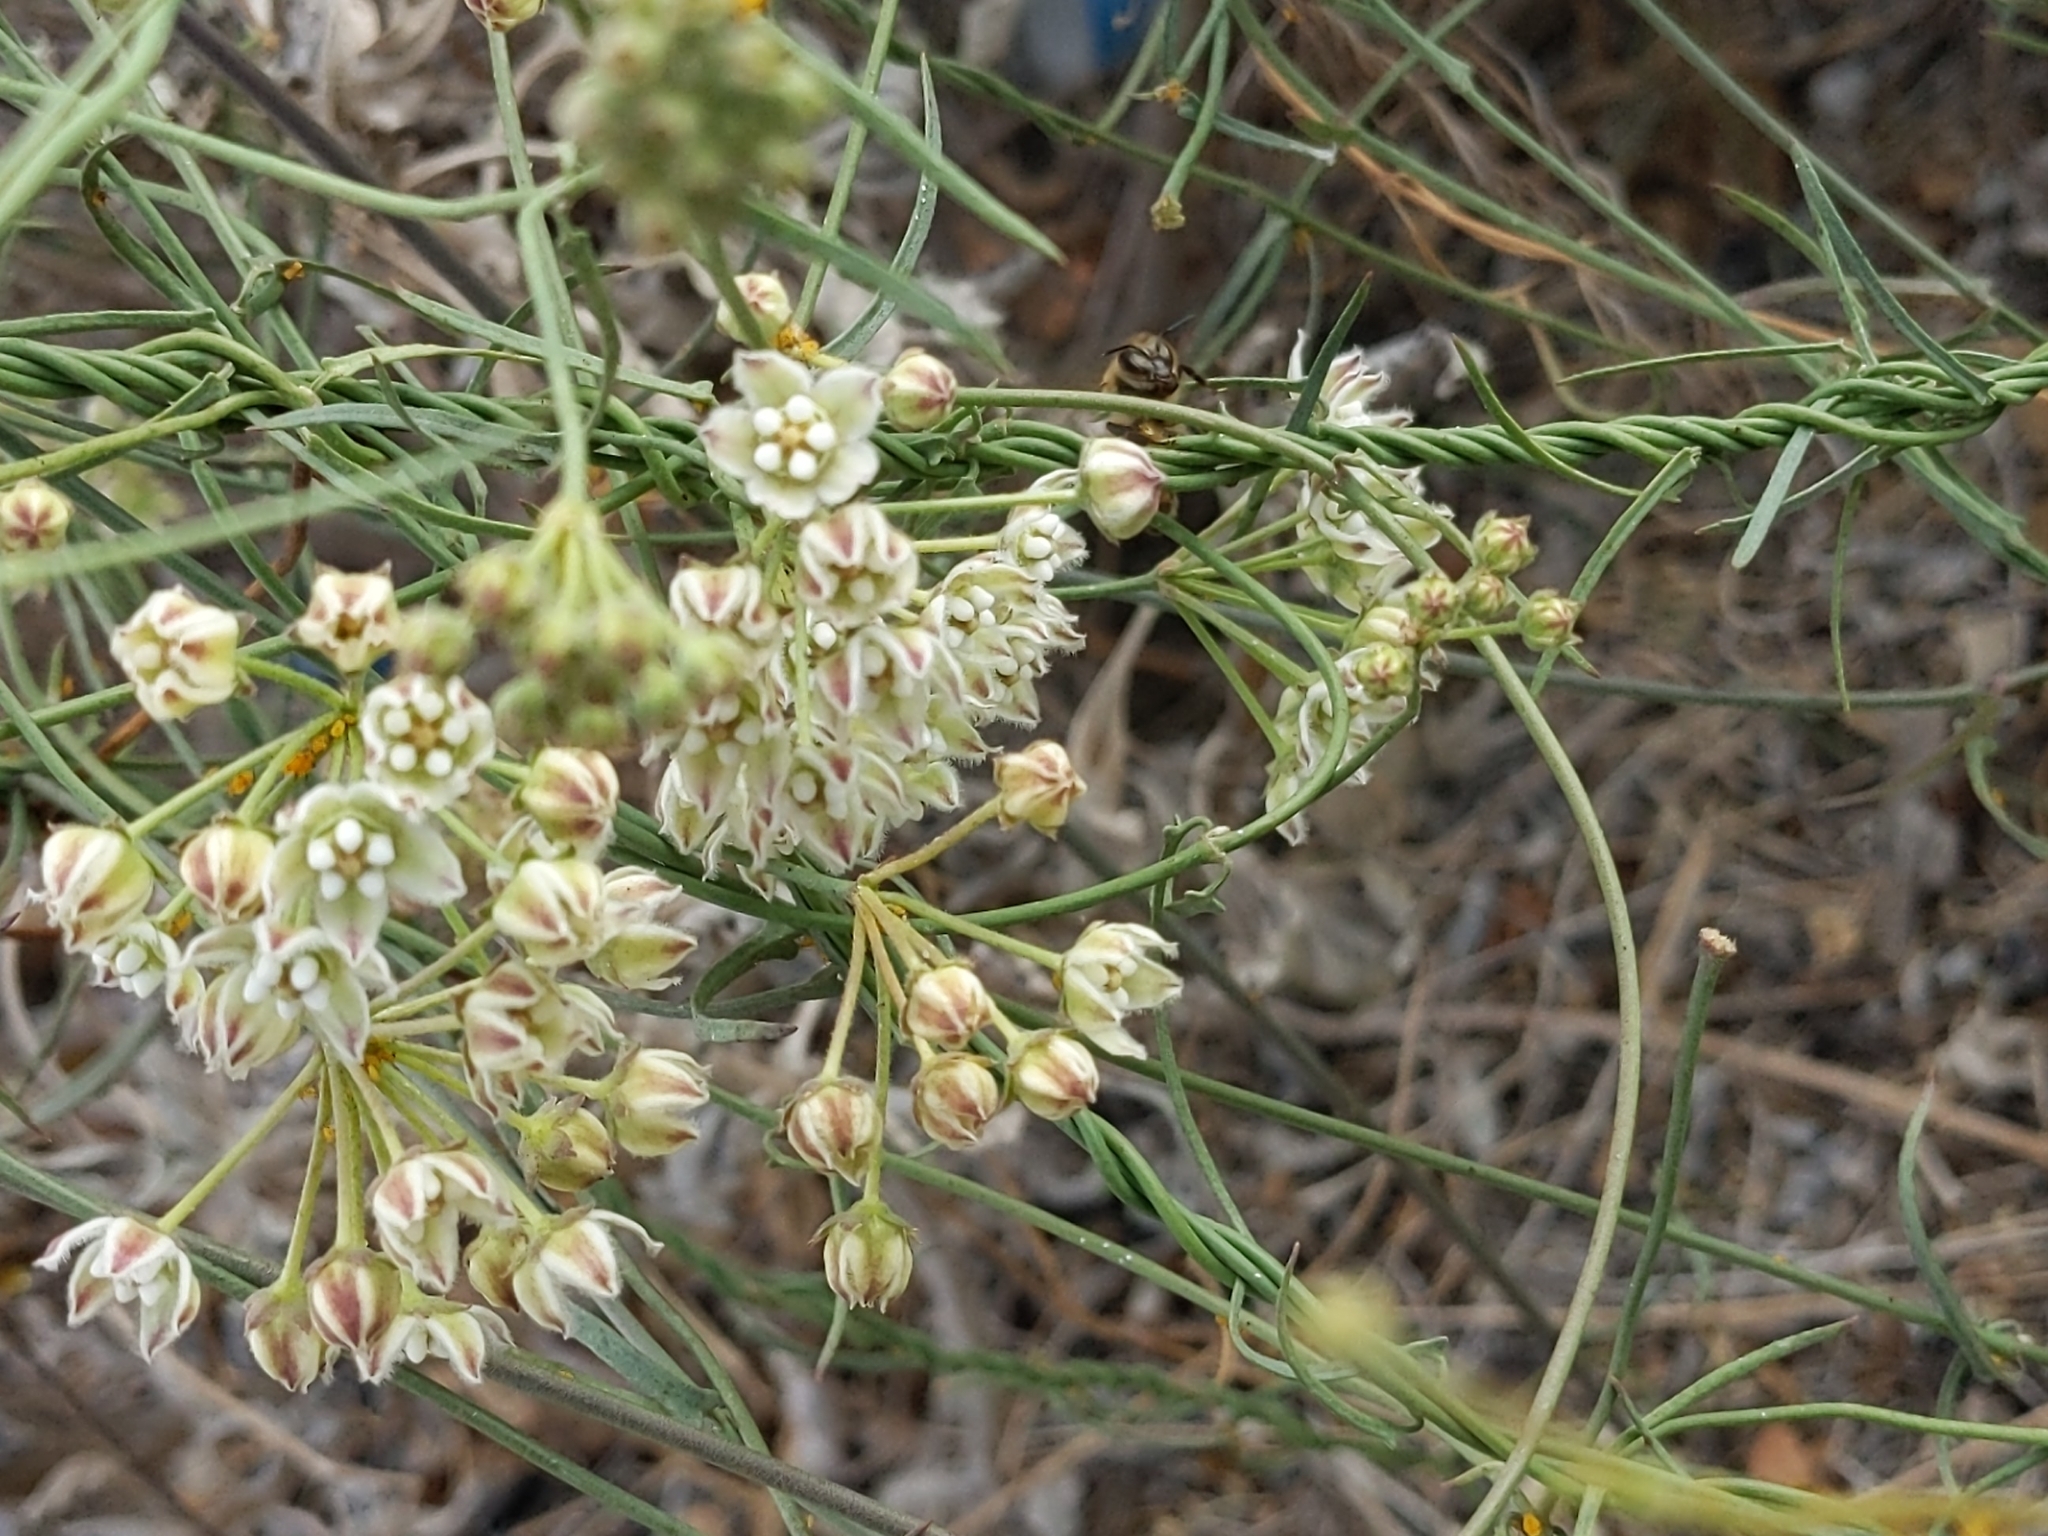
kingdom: Plantae
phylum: Tracheophyta
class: Magnoliopsida
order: Gentianales
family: Apocynaceae
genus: Funastrum
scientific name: Funastrum heterophyllum
